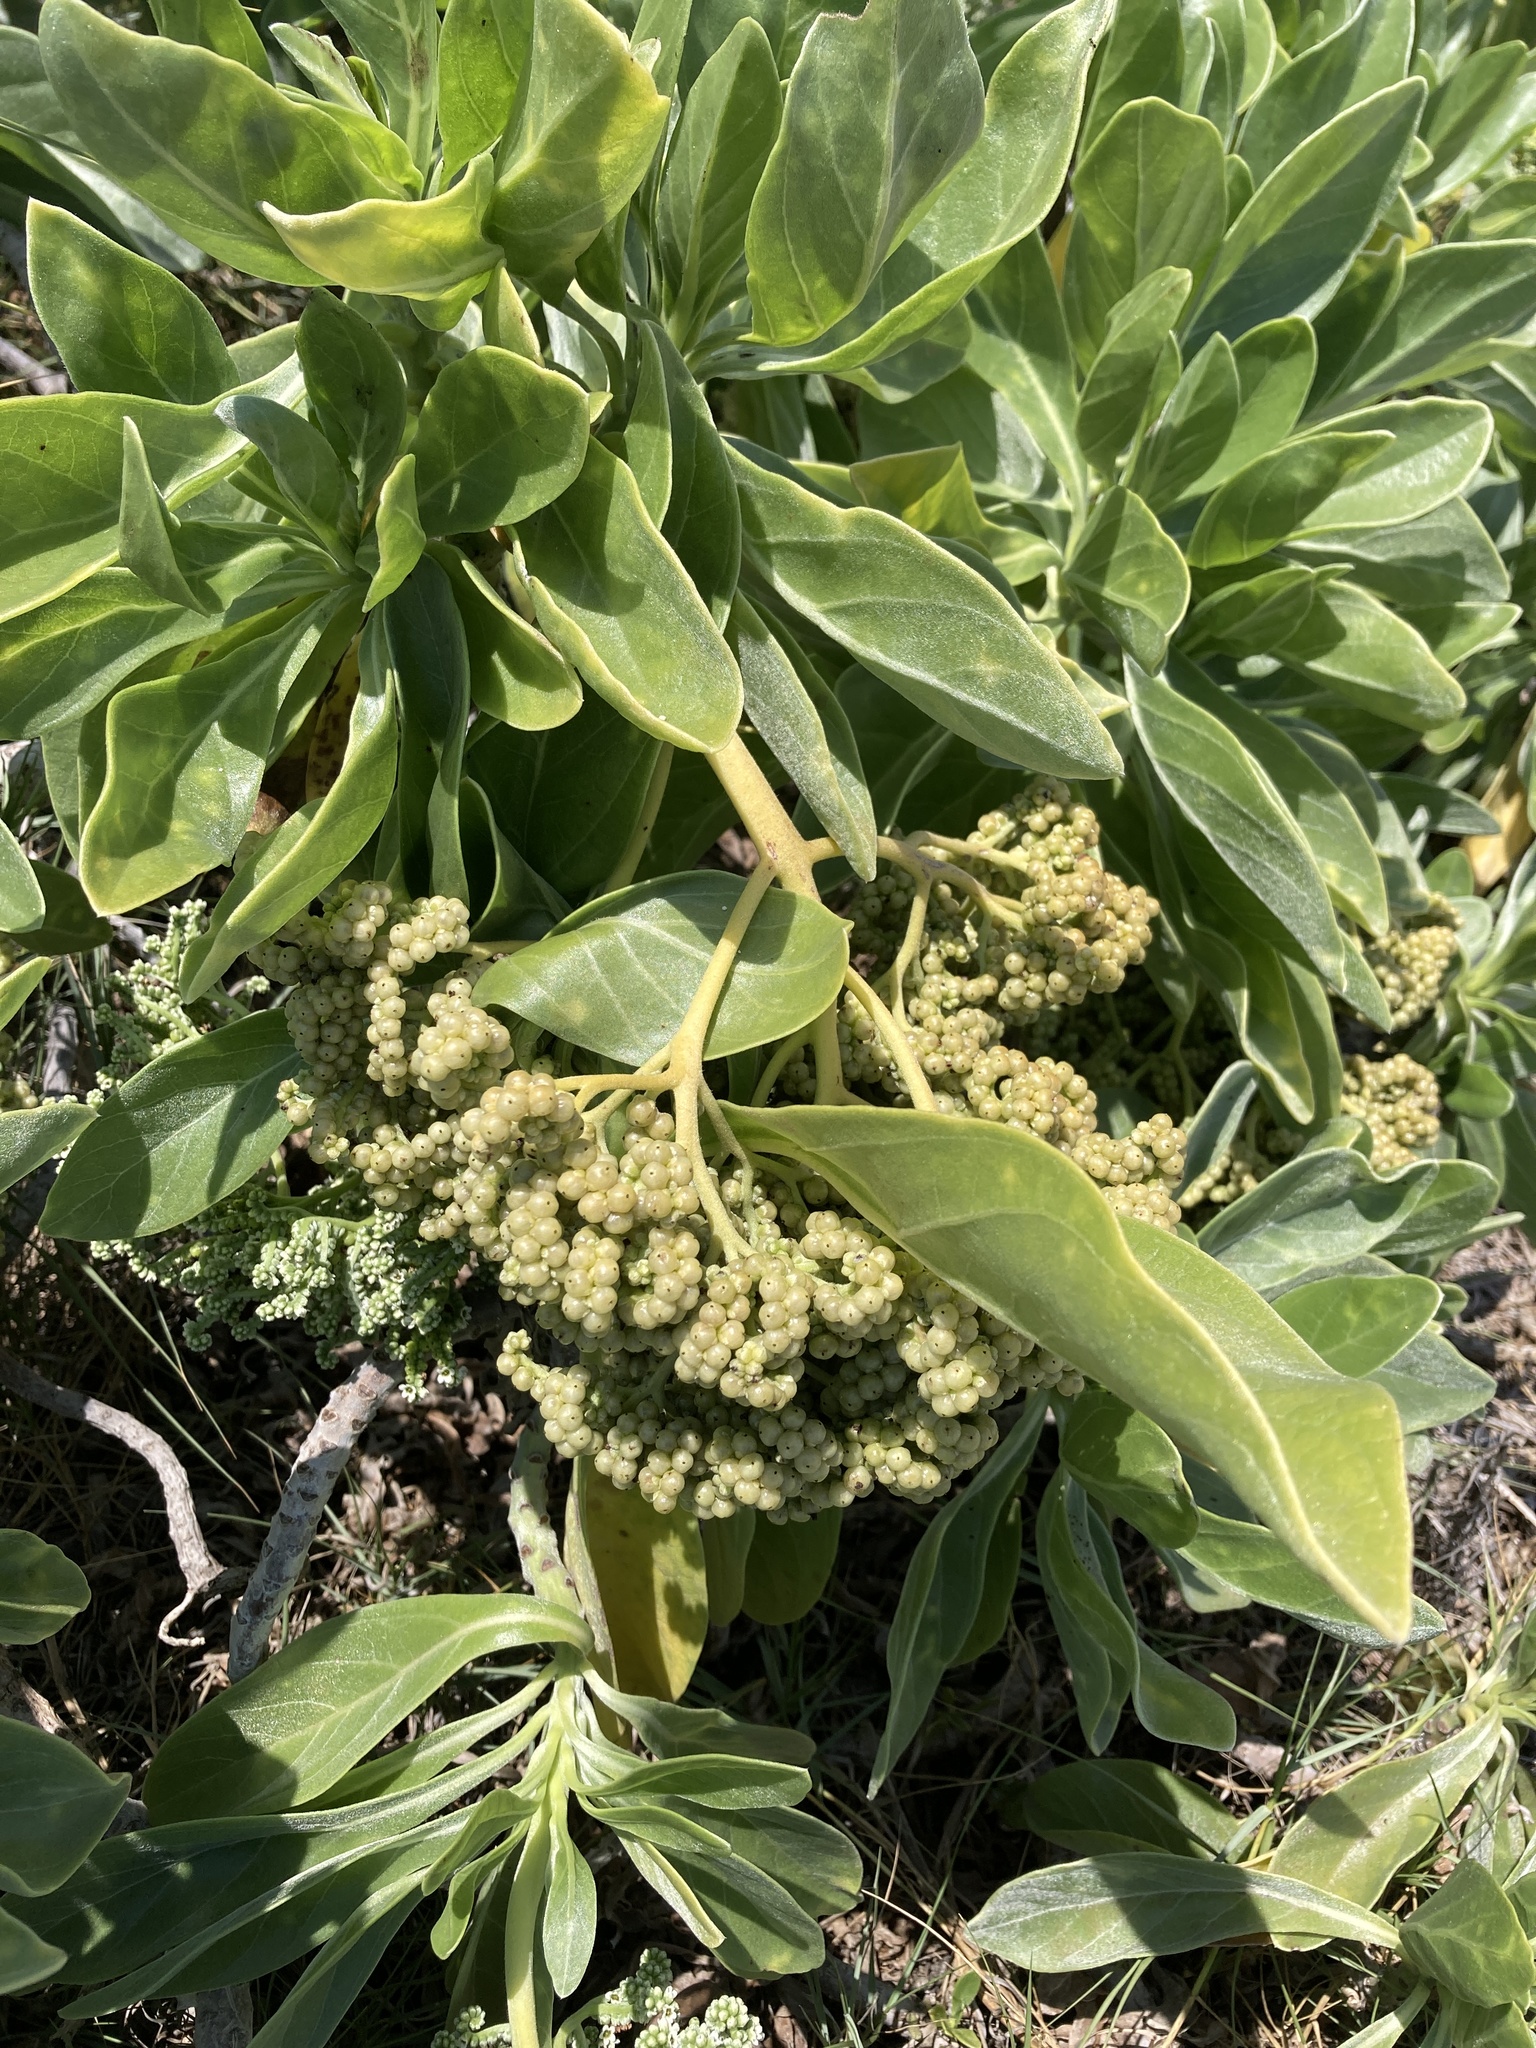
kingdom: Plantae
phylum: Tracheophyta
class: Magnoliopsida
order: Boraginales
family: Heliotropiaceae
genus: Heliotropium
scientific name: Heliotropium velutinum
